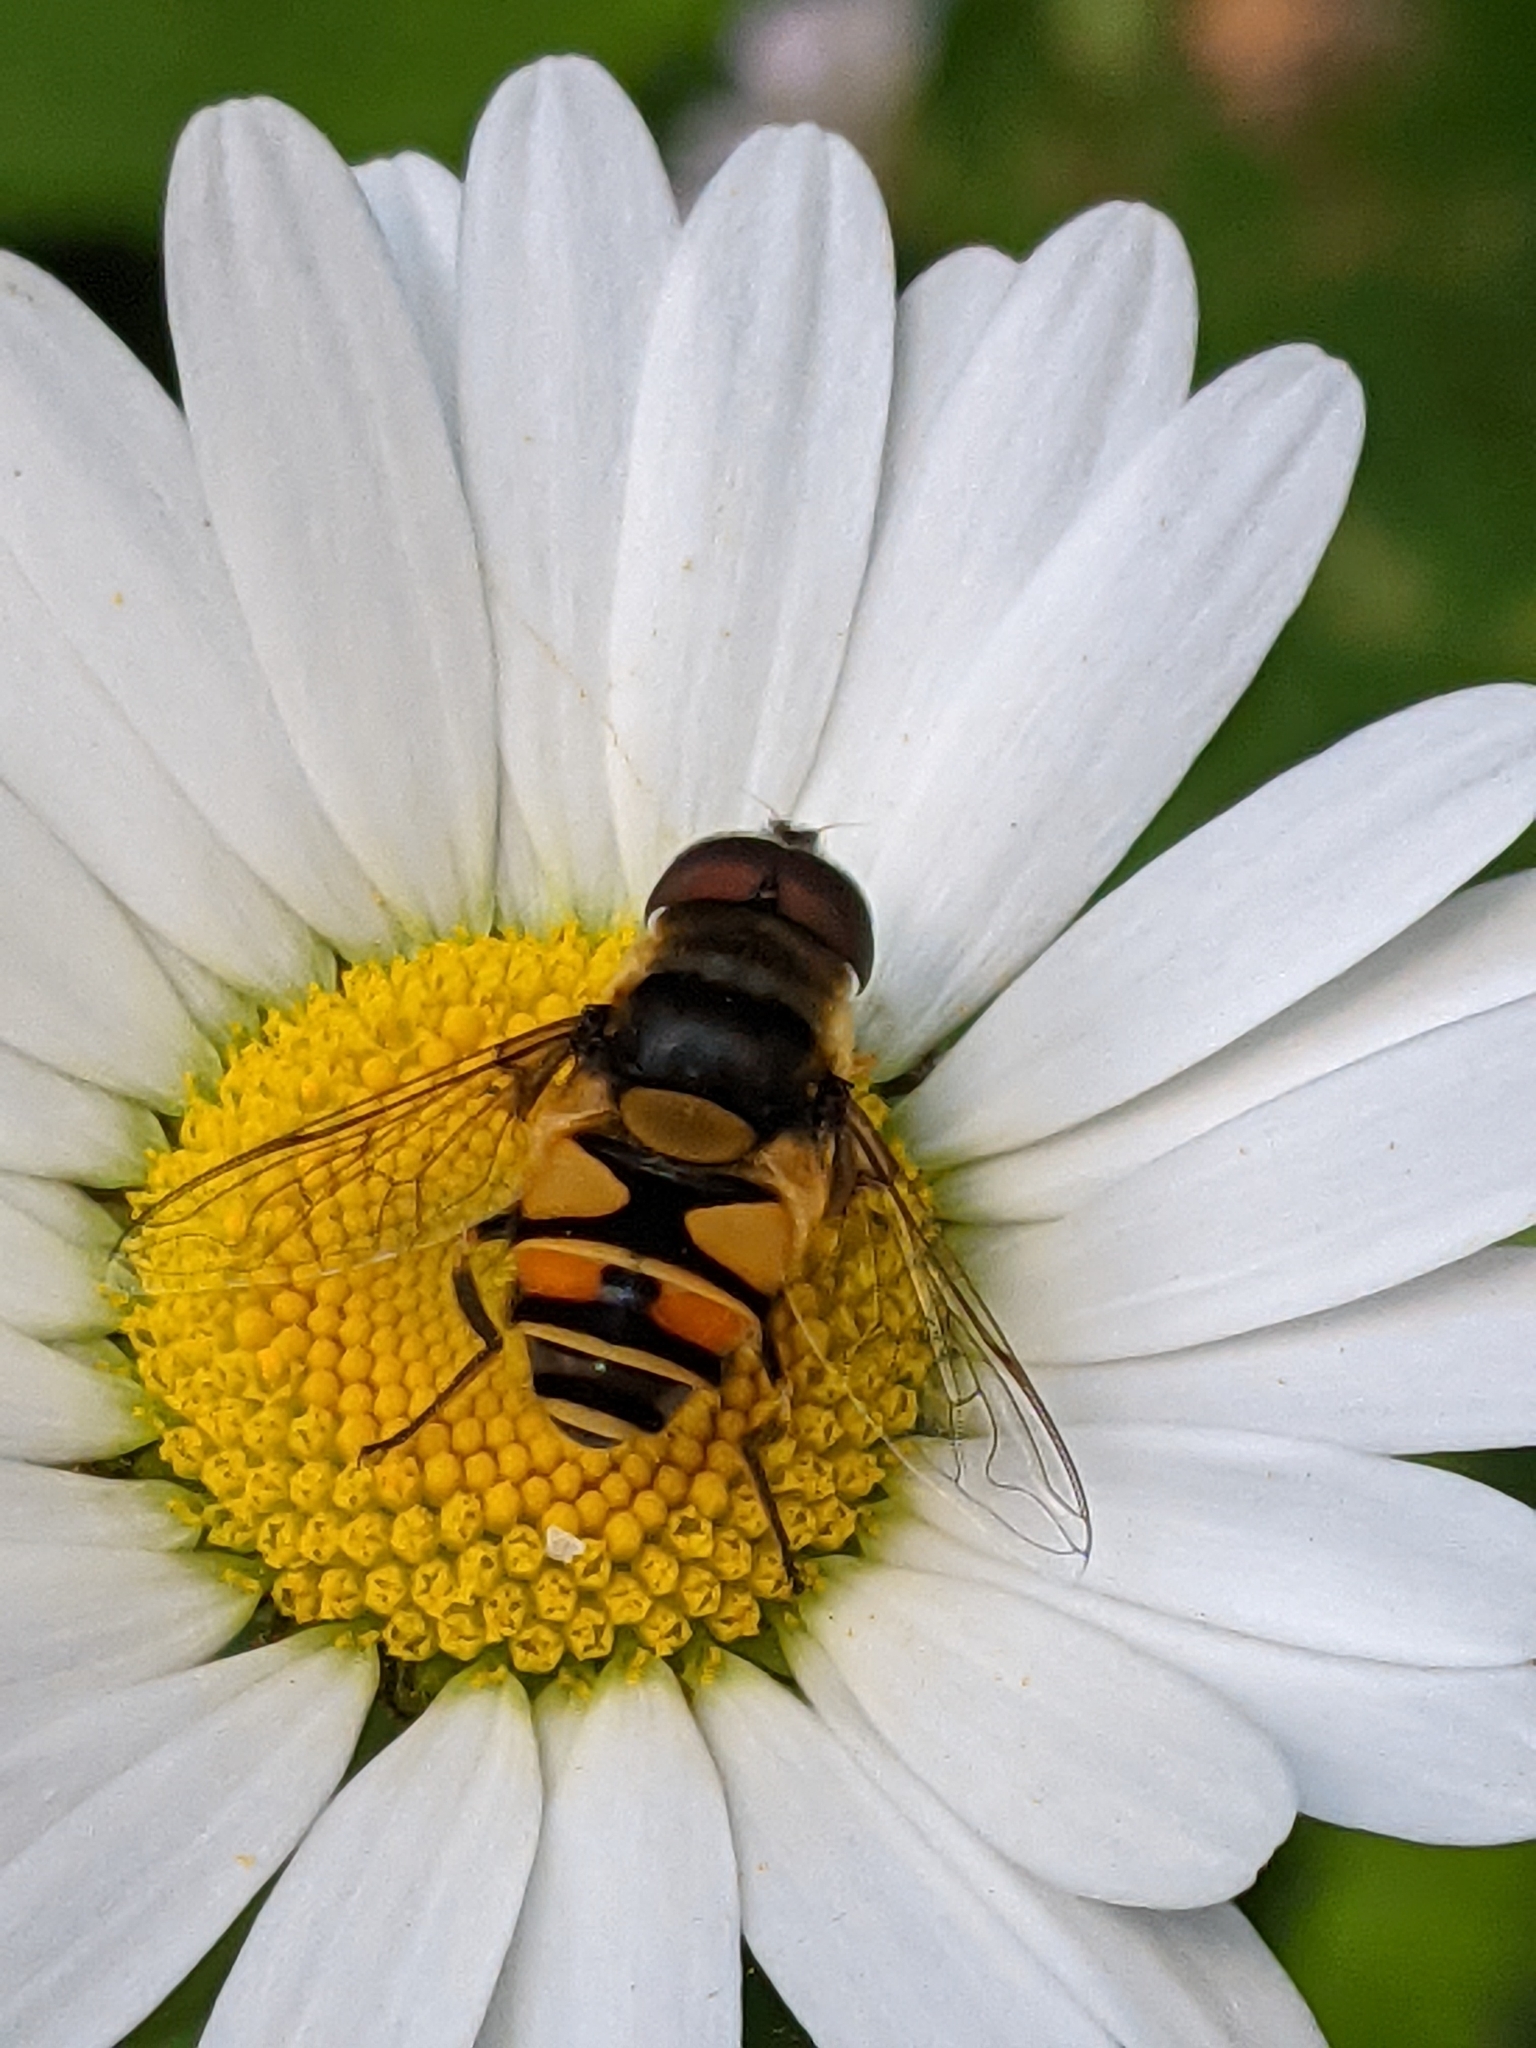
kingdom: Animalia
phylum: Arthropoda
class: Insecta
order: Diptera
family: Syrphidae
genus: Eristalis
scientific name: Eristalis transversa
